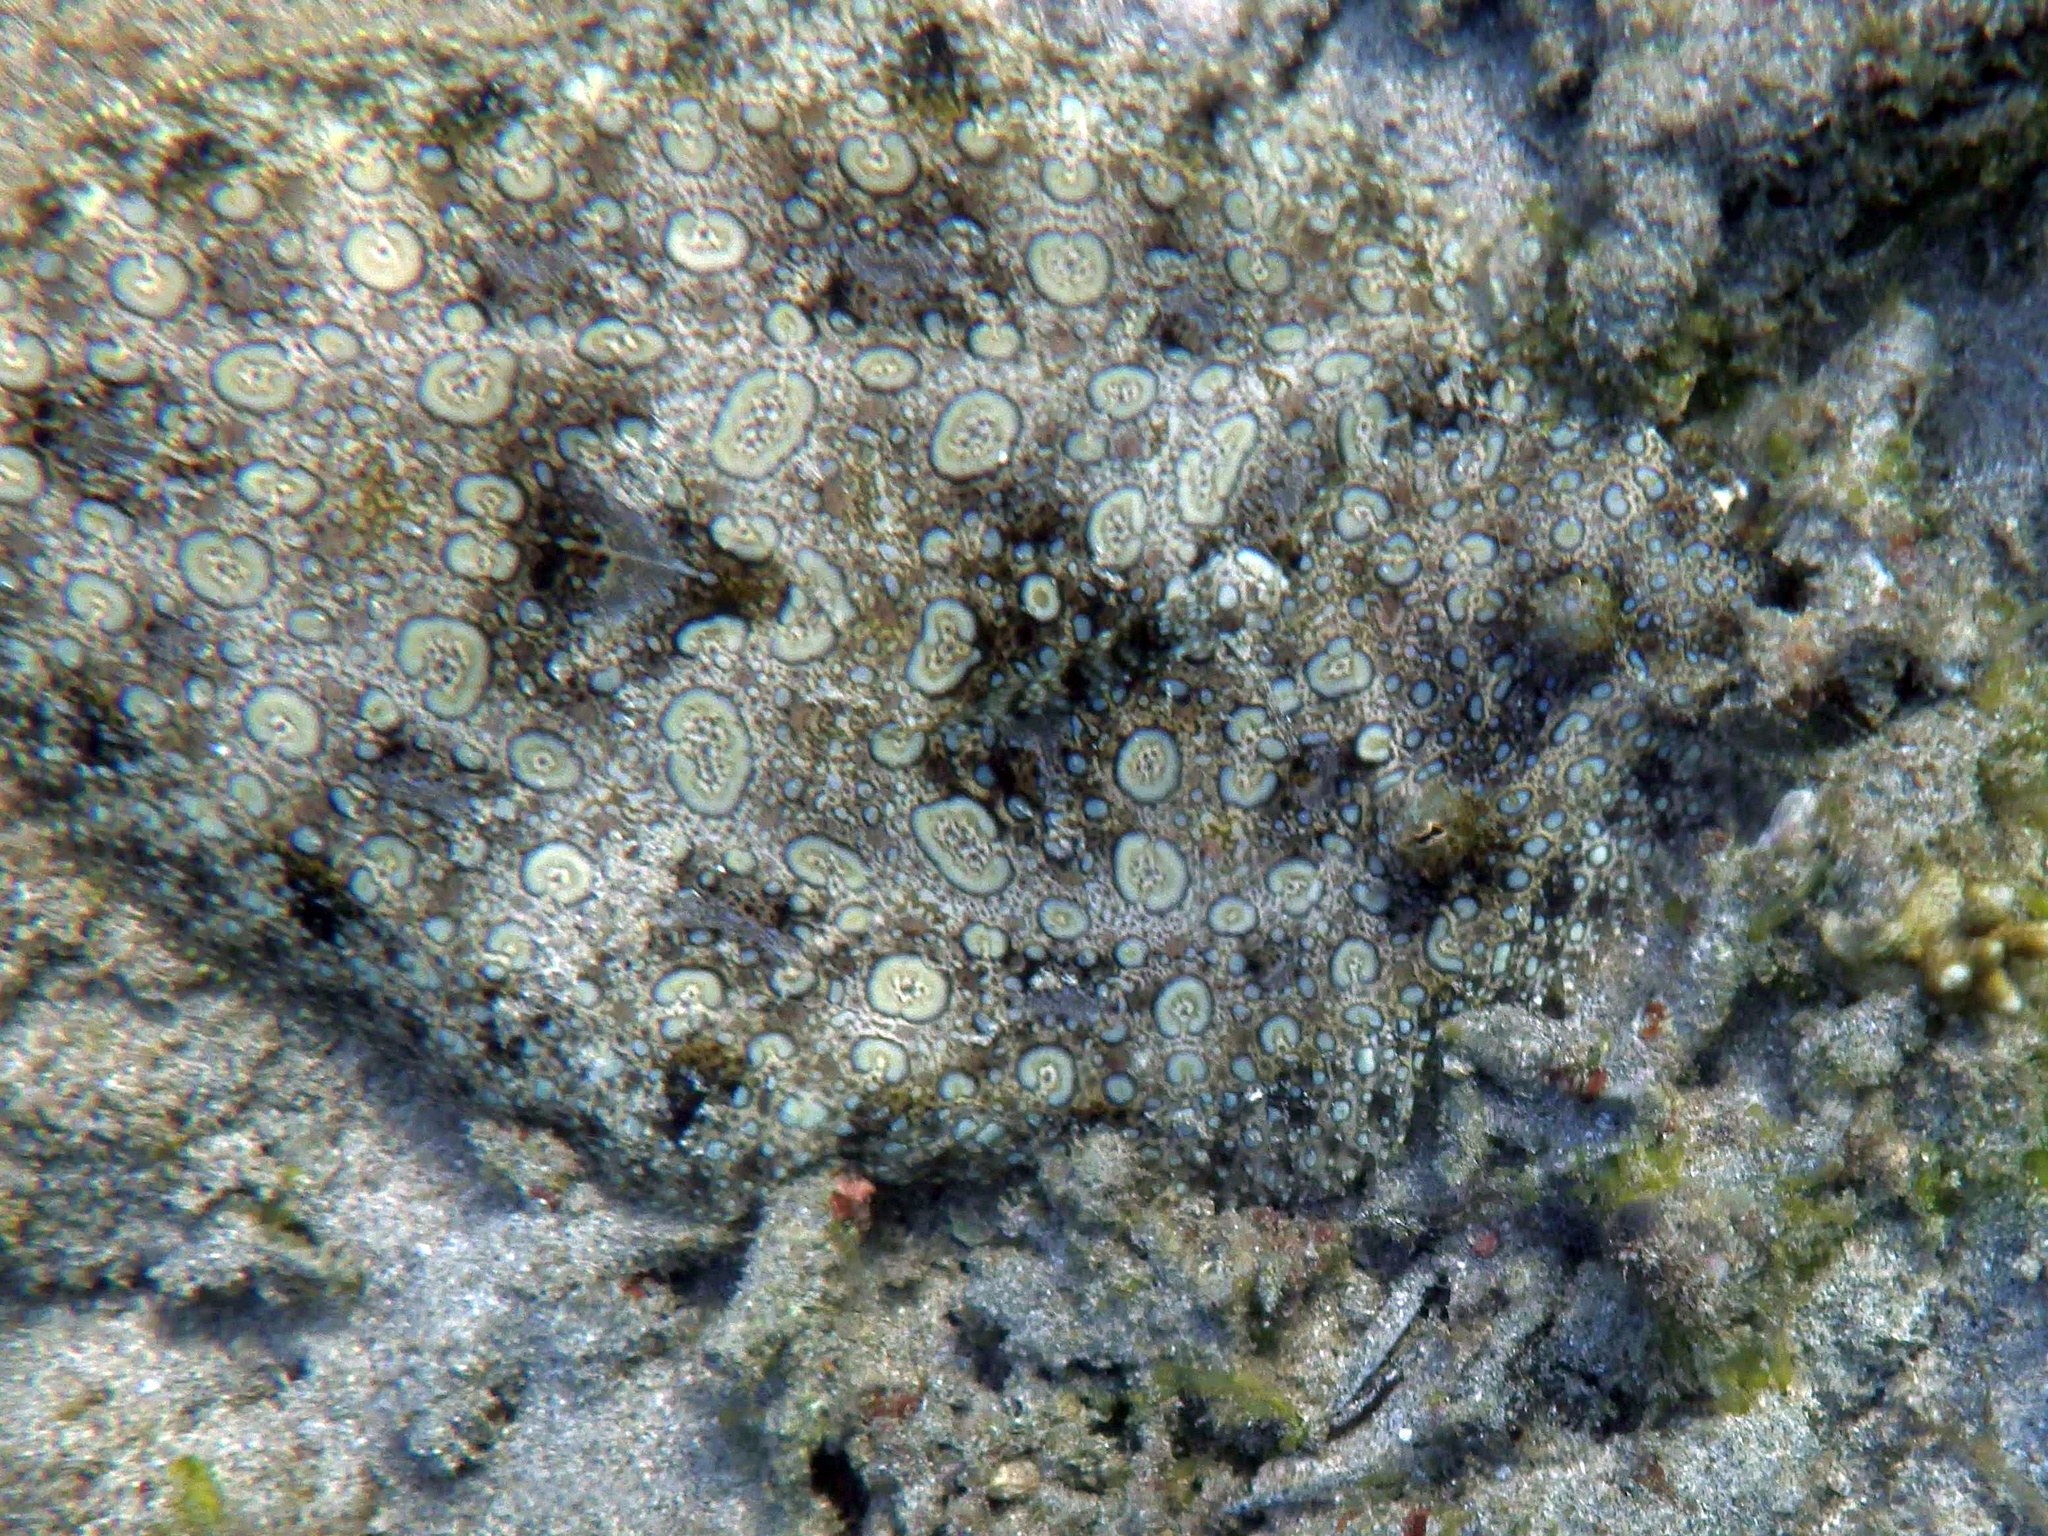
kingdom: Animalia
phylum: Chordata
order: Pleuronectiformes
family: Bothidae
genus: Bothus
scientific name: Bothus mancus
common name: Flowery flounder
